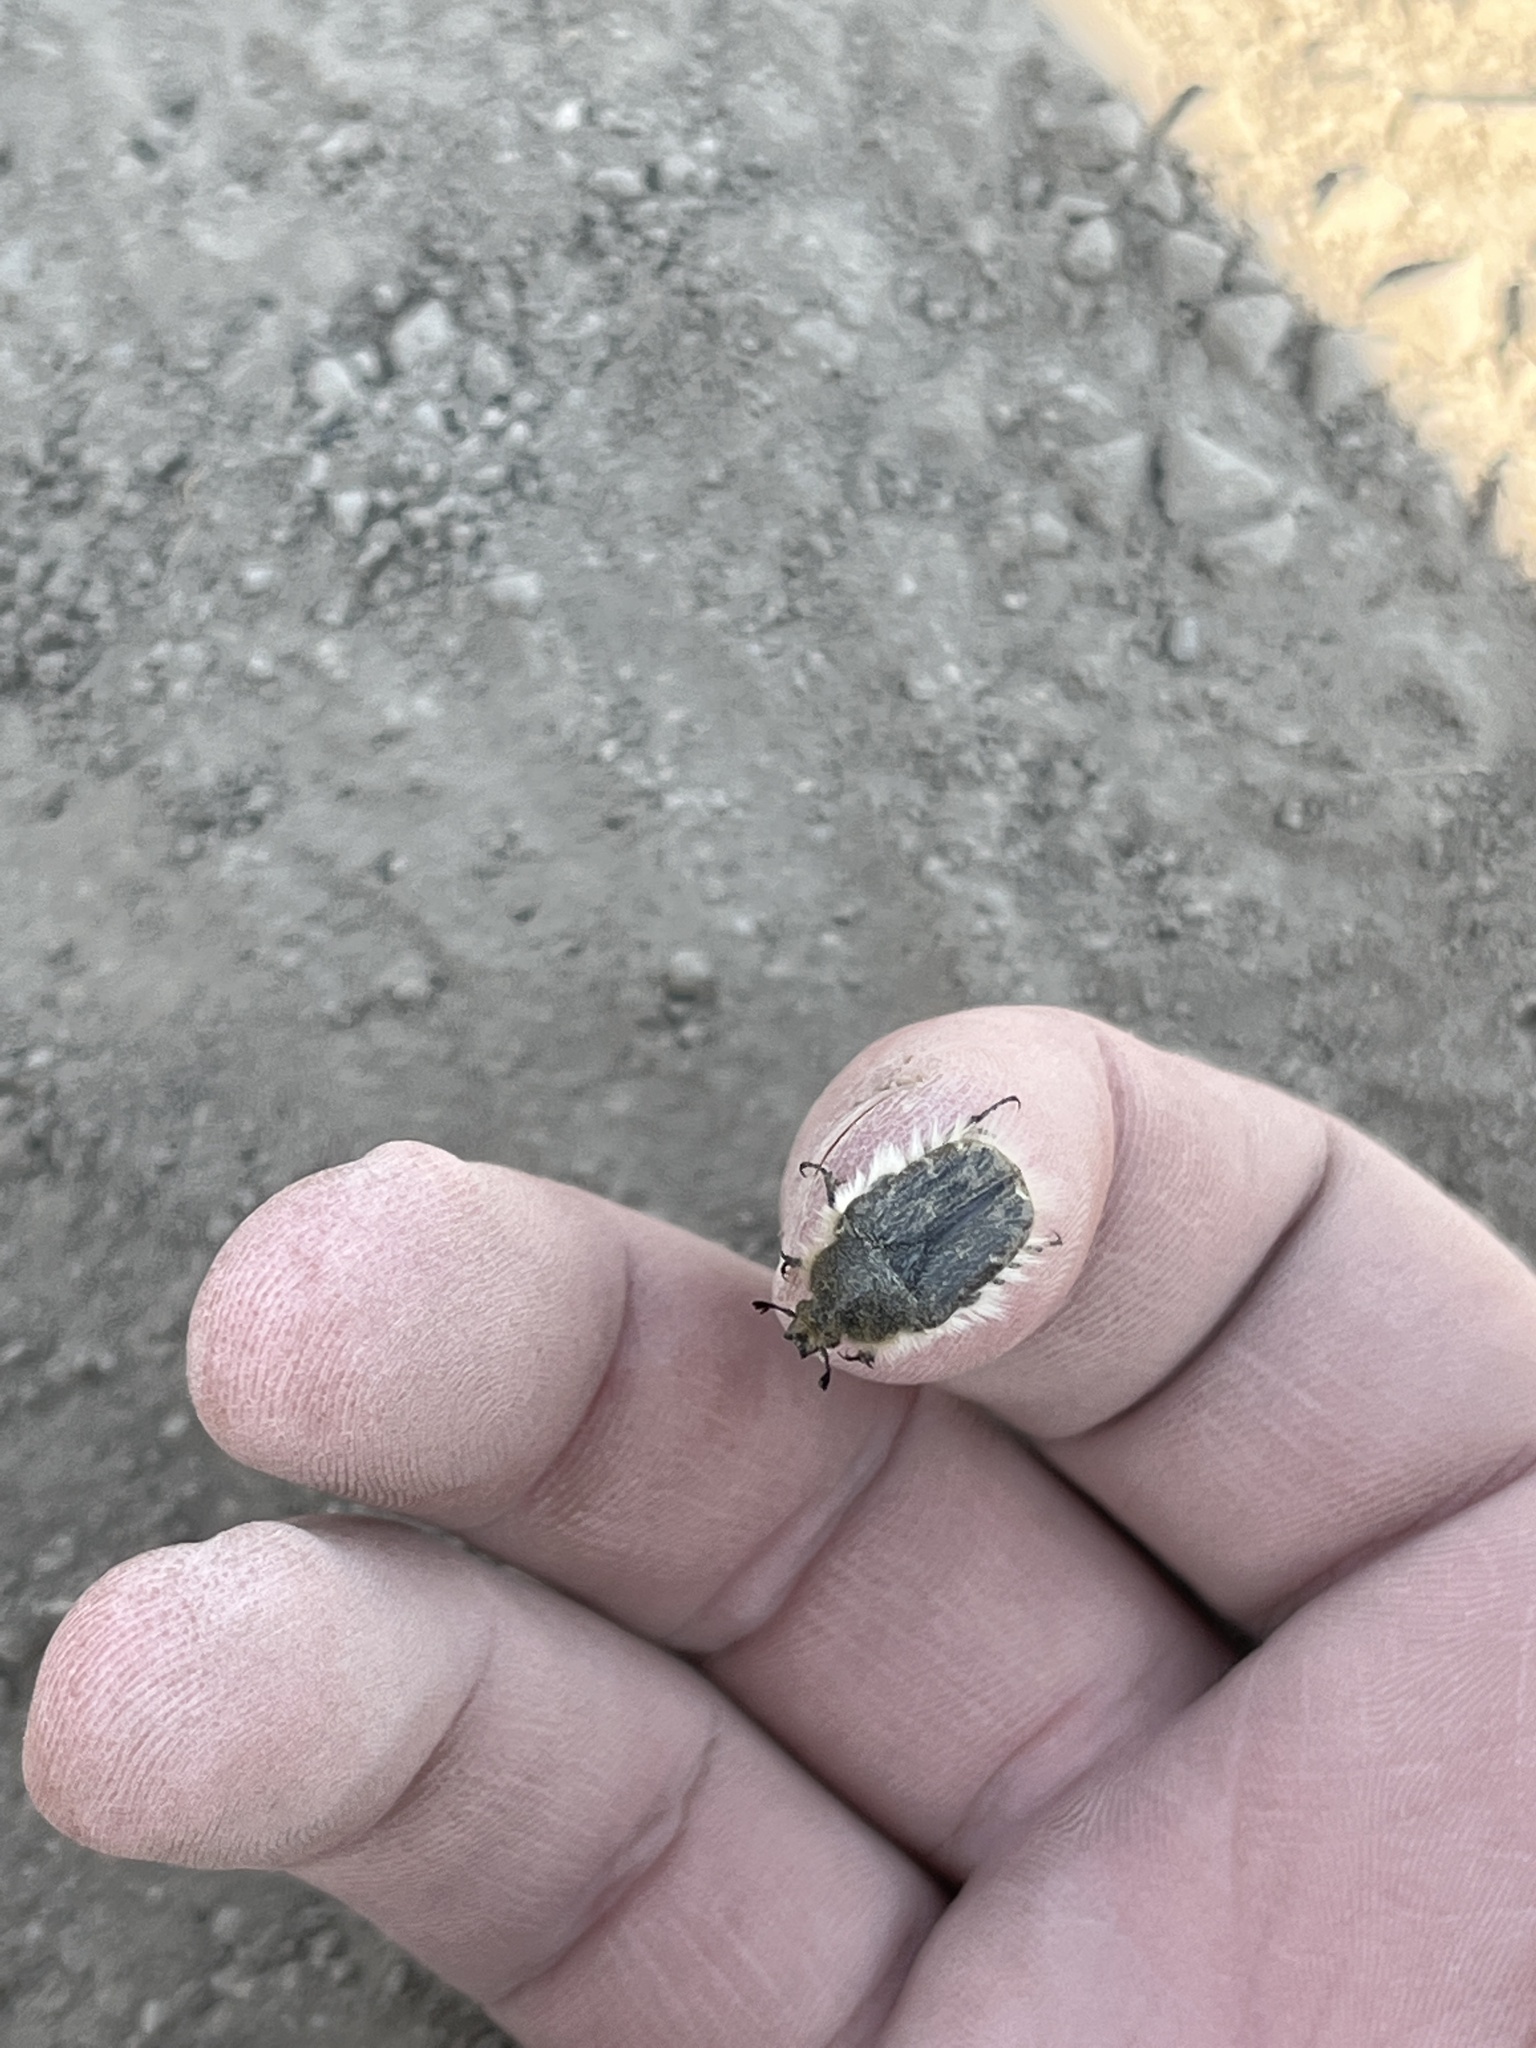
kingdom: Animalia
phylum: Arthropoda
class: Insecta
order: Coleoptera
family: Scarabaeidae
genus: Tropinota
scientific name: Tropinota hirta
